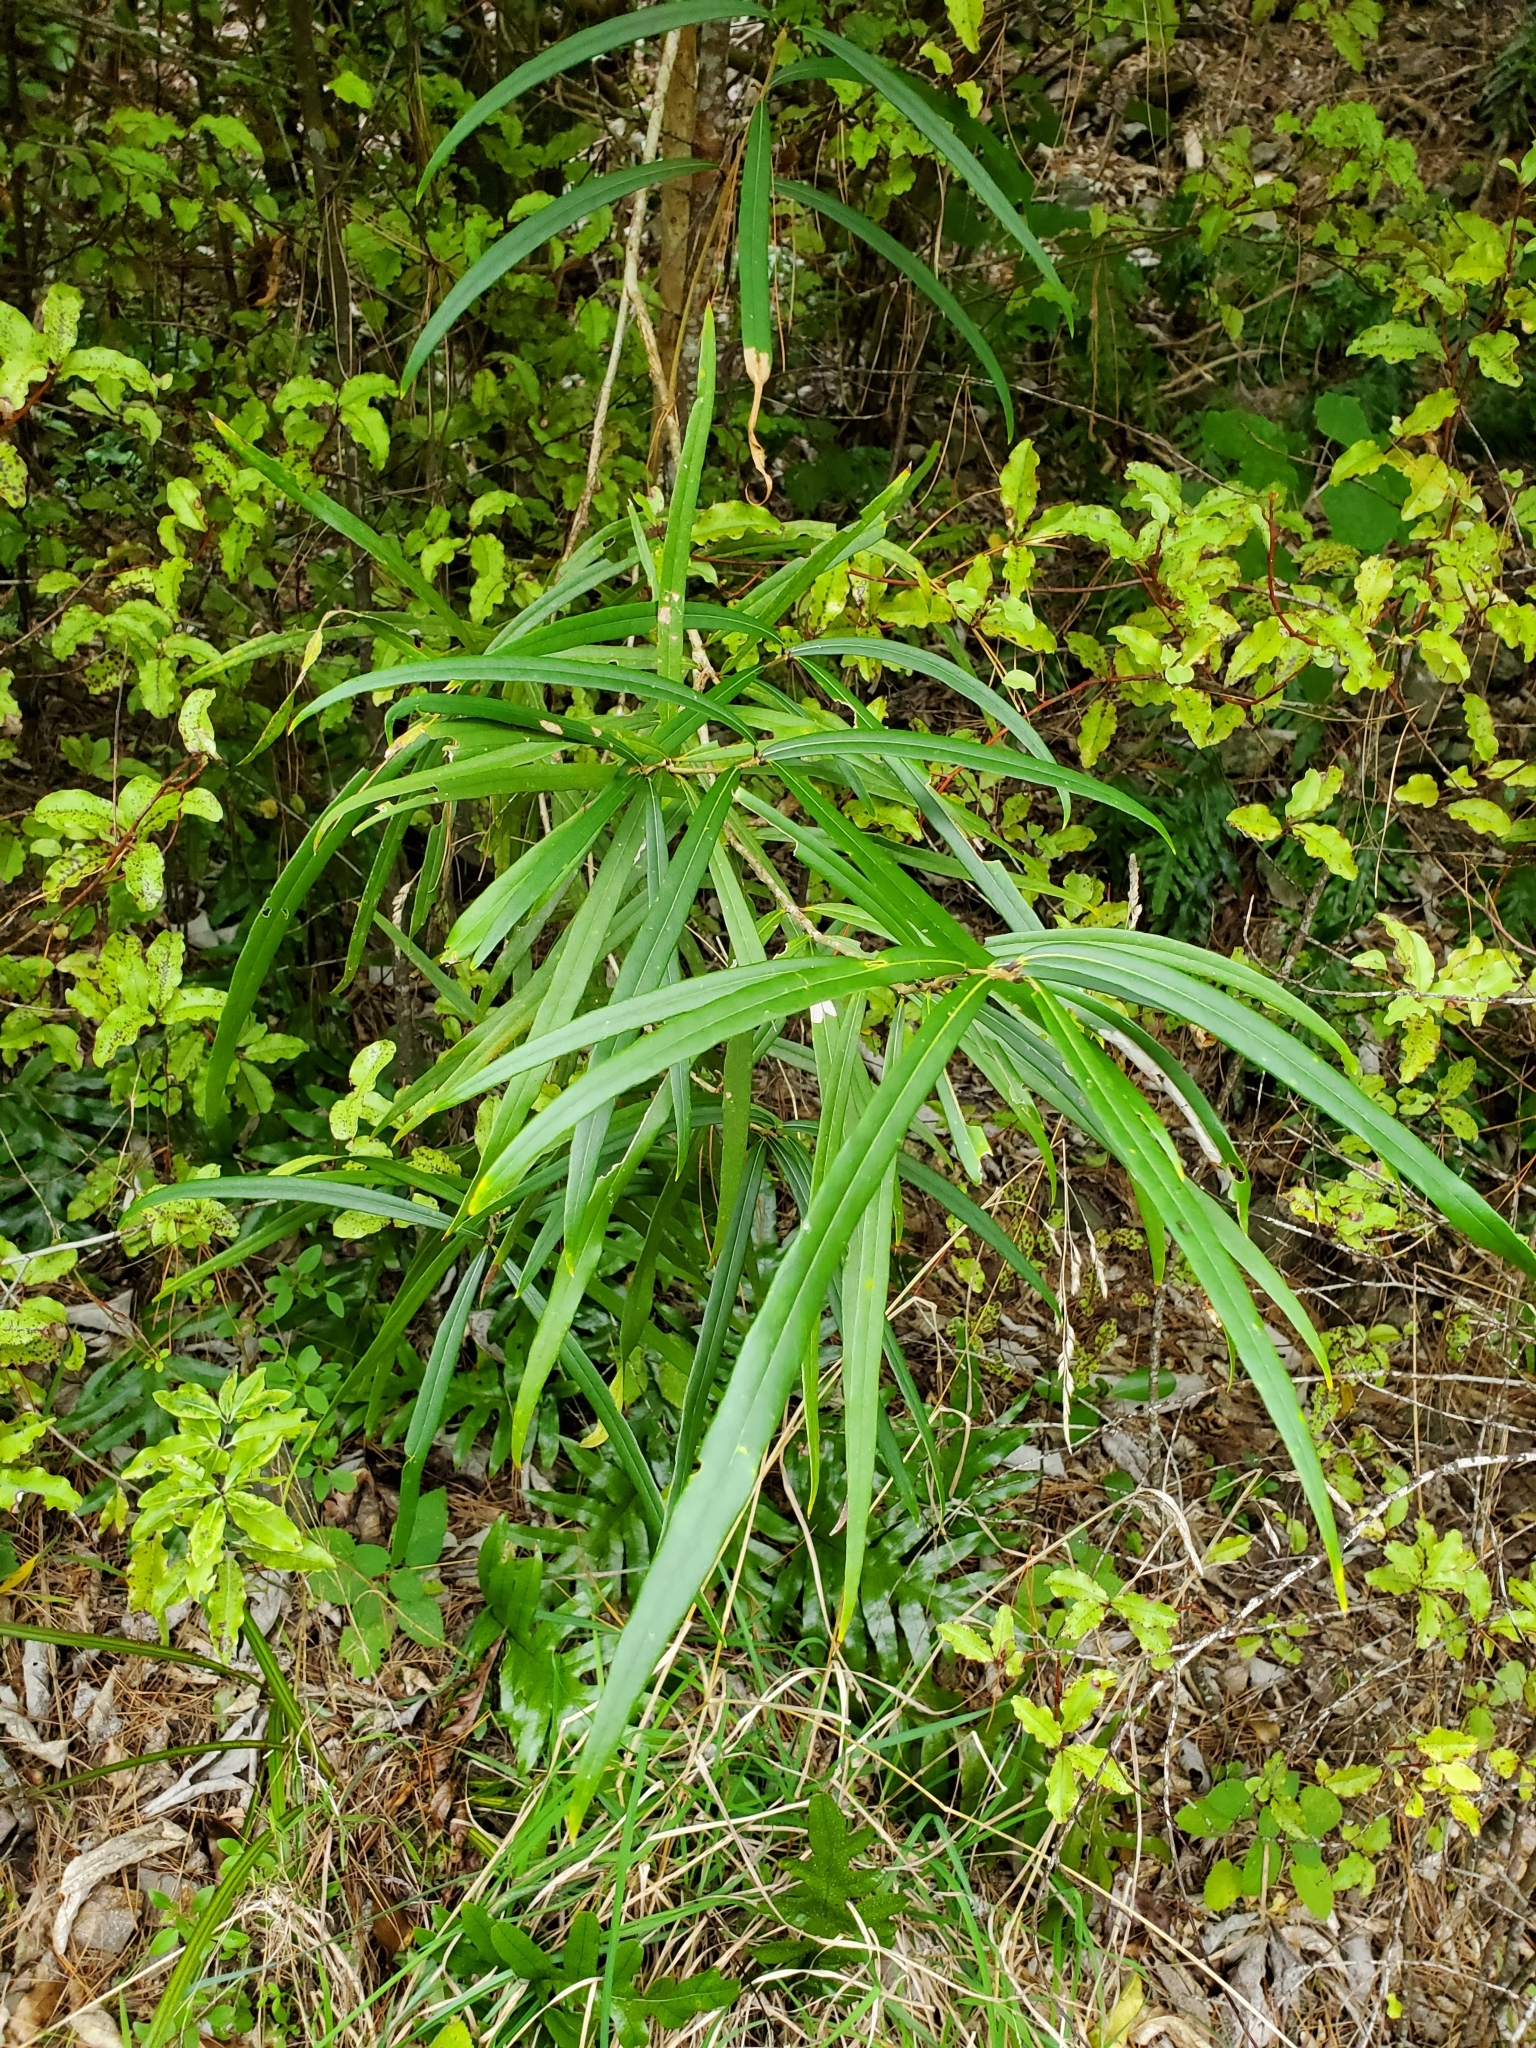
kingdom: Plantae
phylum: Tracheophyta
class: Magnoliopsida
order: Lamiales
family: Oleaceae
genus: Nestegis
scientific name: Nestegis lanceolata
